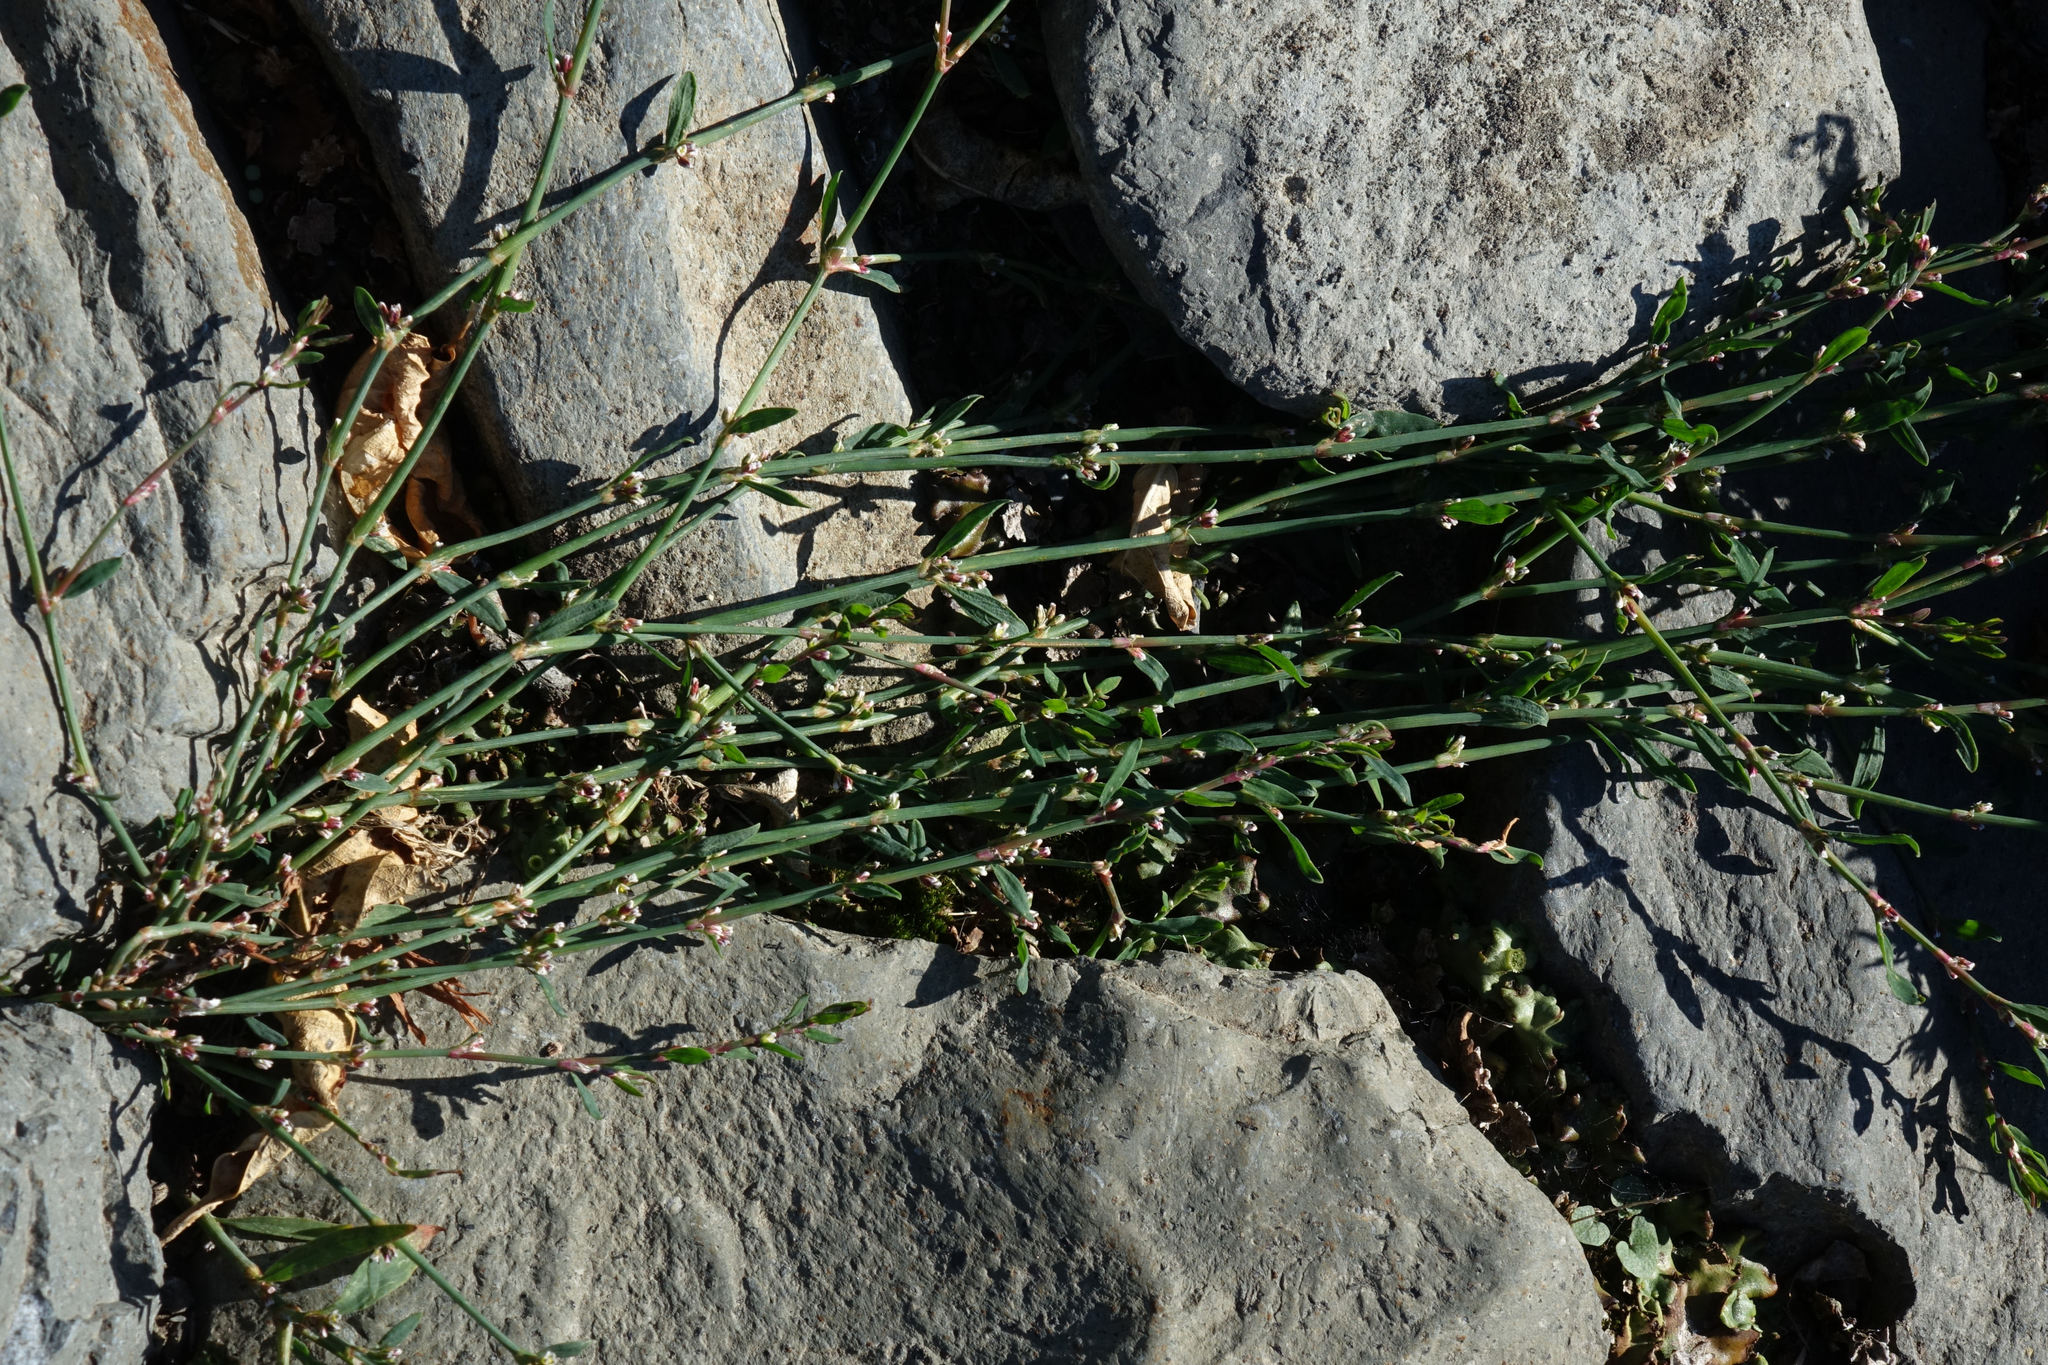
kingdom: Plantae
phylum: Tracheophyta
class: Magnoliopsida
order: Caryophyllales
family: Polygonaceae
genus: Polygonum
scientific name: Polygonum aviculare
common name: Prostrate knotweed
